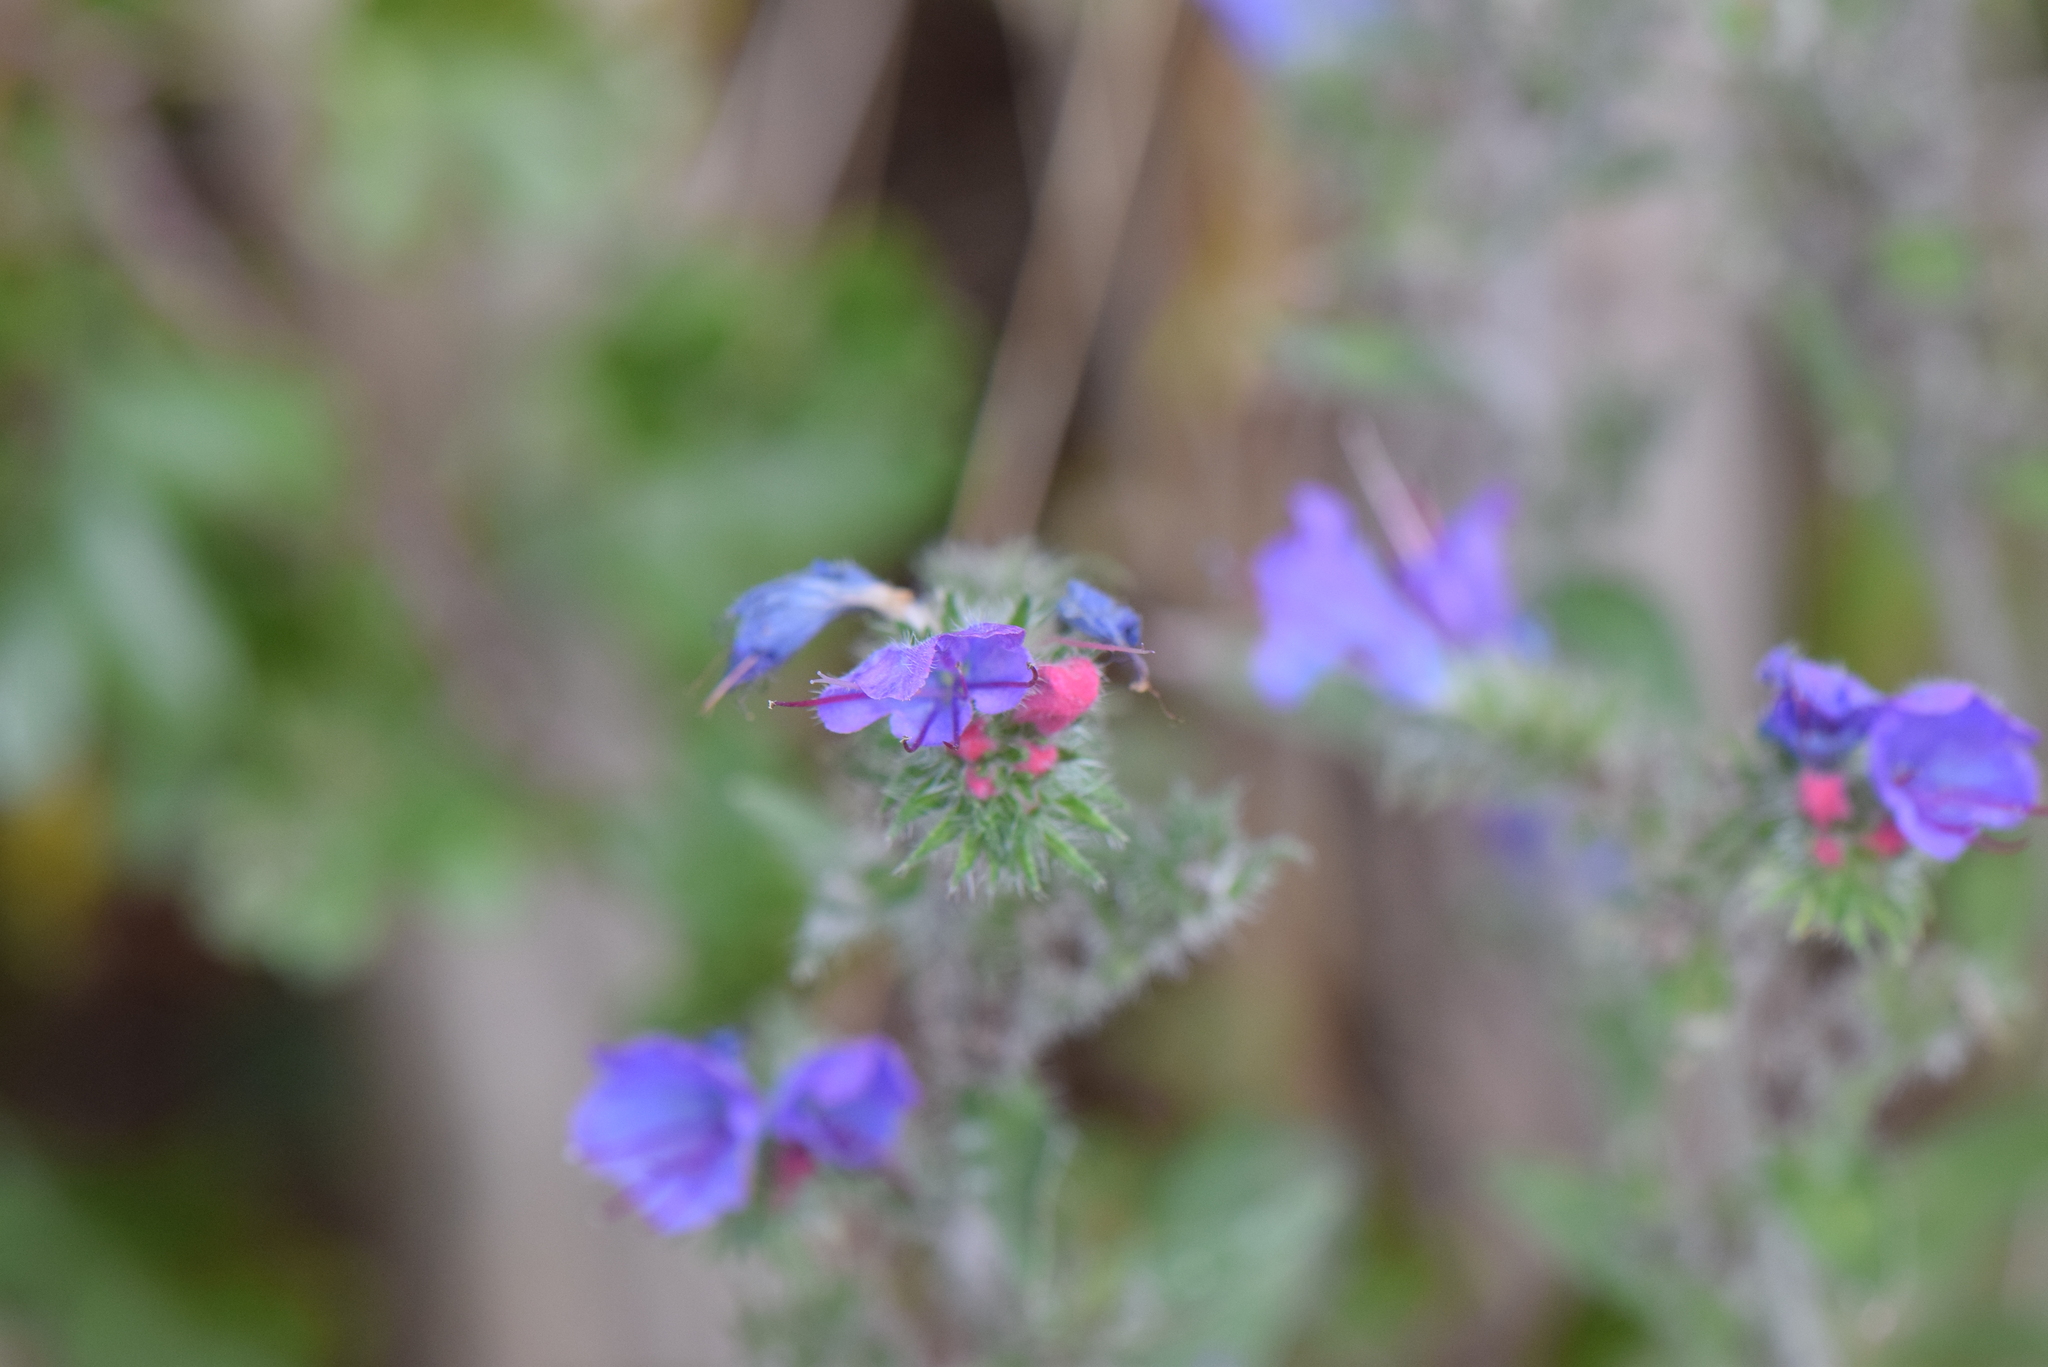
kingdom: Plantae
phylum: Tracheophyta
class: Magnoliopsida
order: Boraginales
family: Boraginaceae
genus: Echium
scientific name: Echium vulgare
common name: Common viper's bugloss
